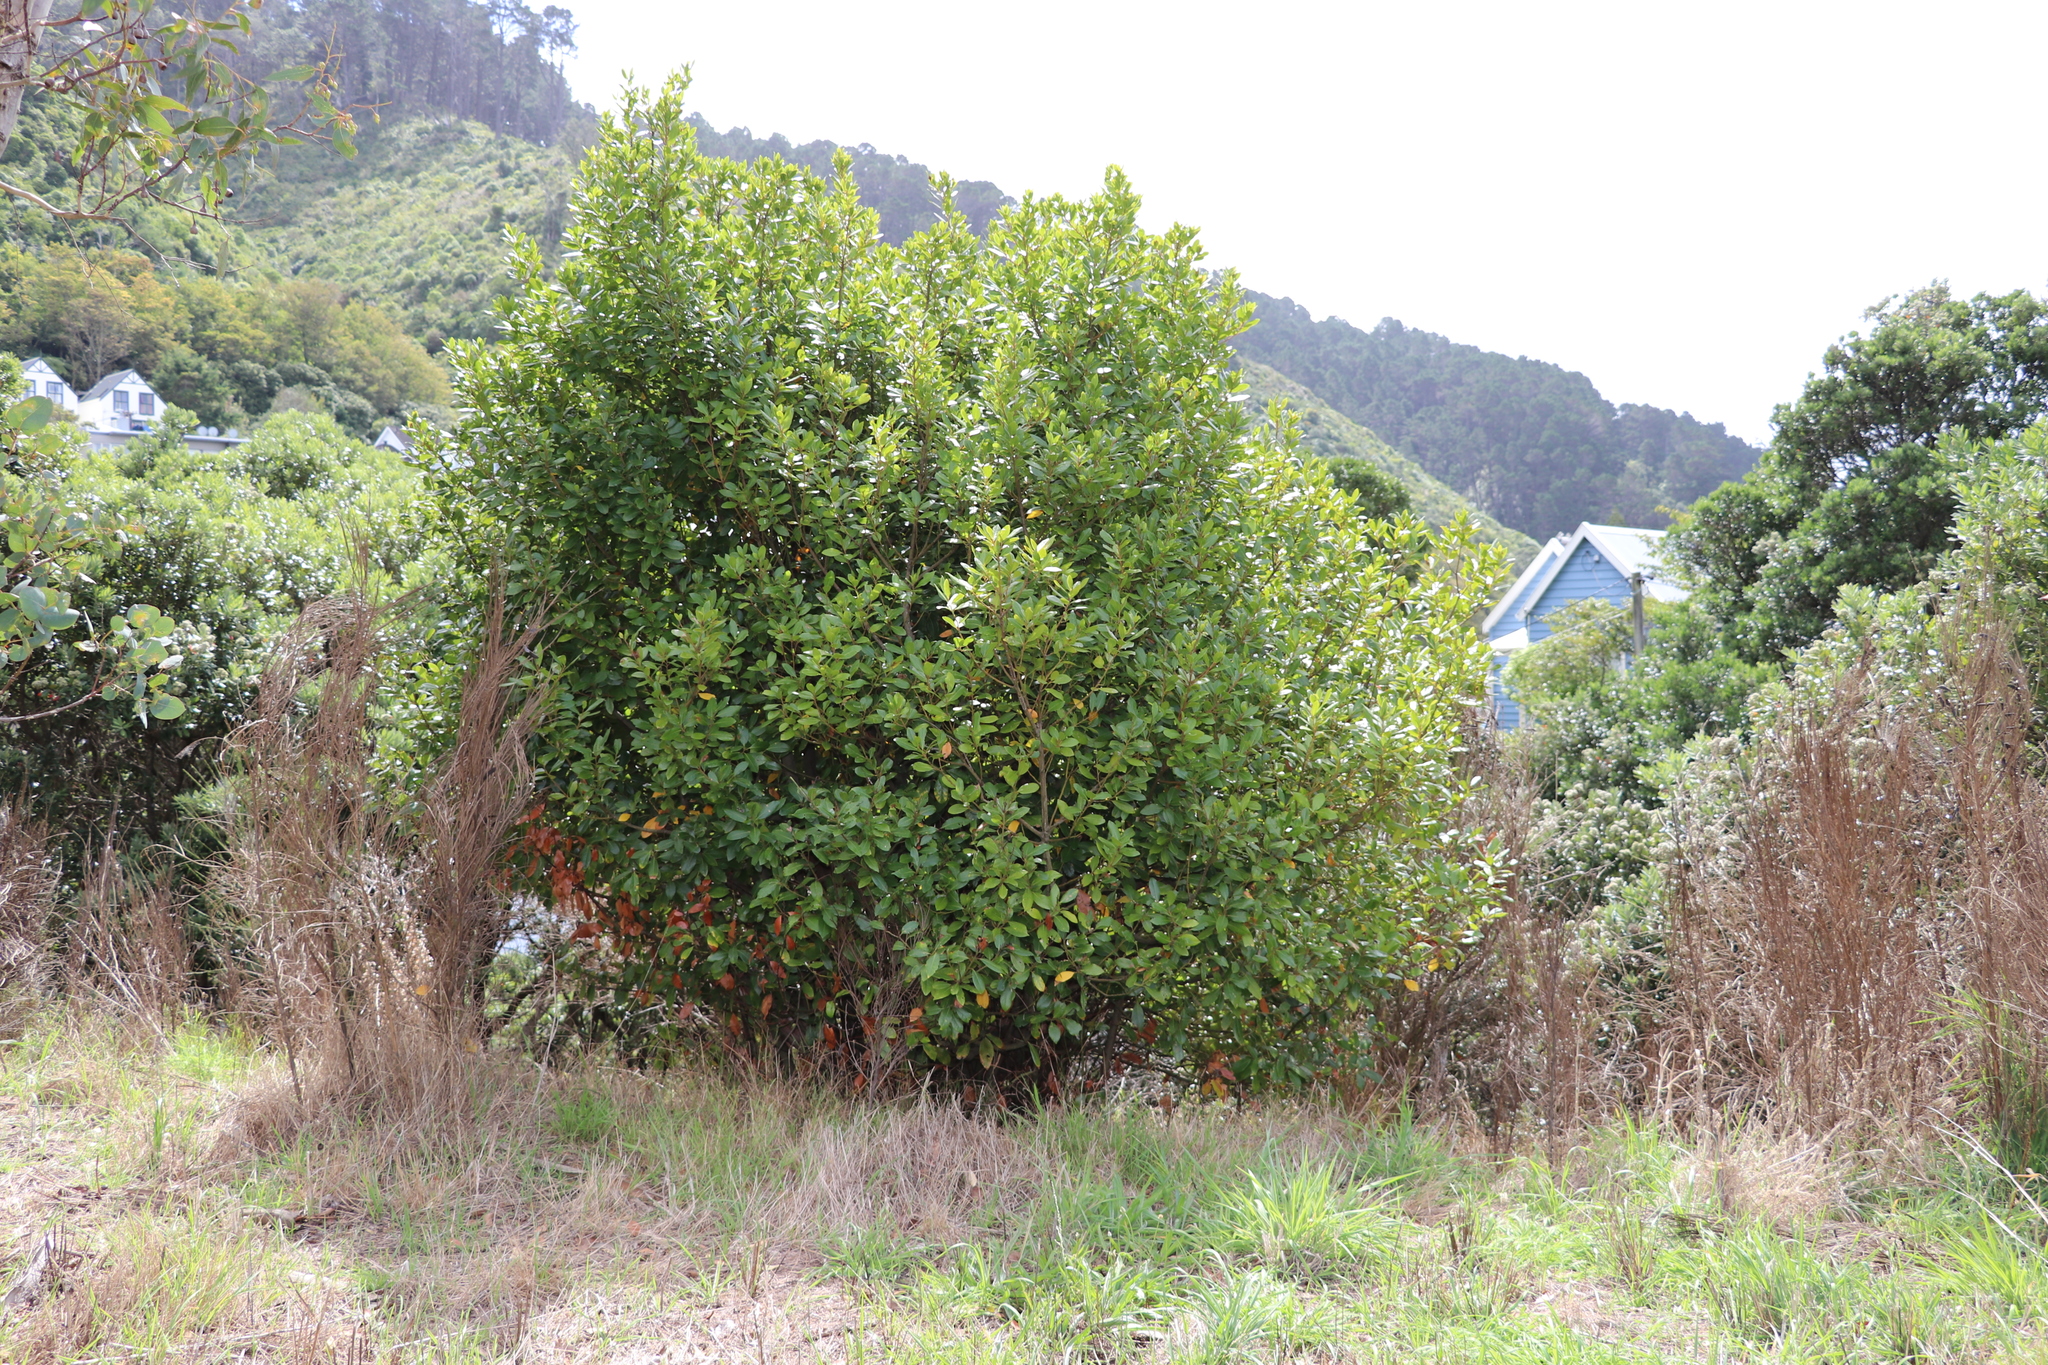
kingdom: Plantae
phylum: Tracheophyta
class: Magnoliopsida
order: Myrtales
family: Myrtaceae
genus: Metrosideros
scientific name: Metrosideros robusta
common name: Northern rata
